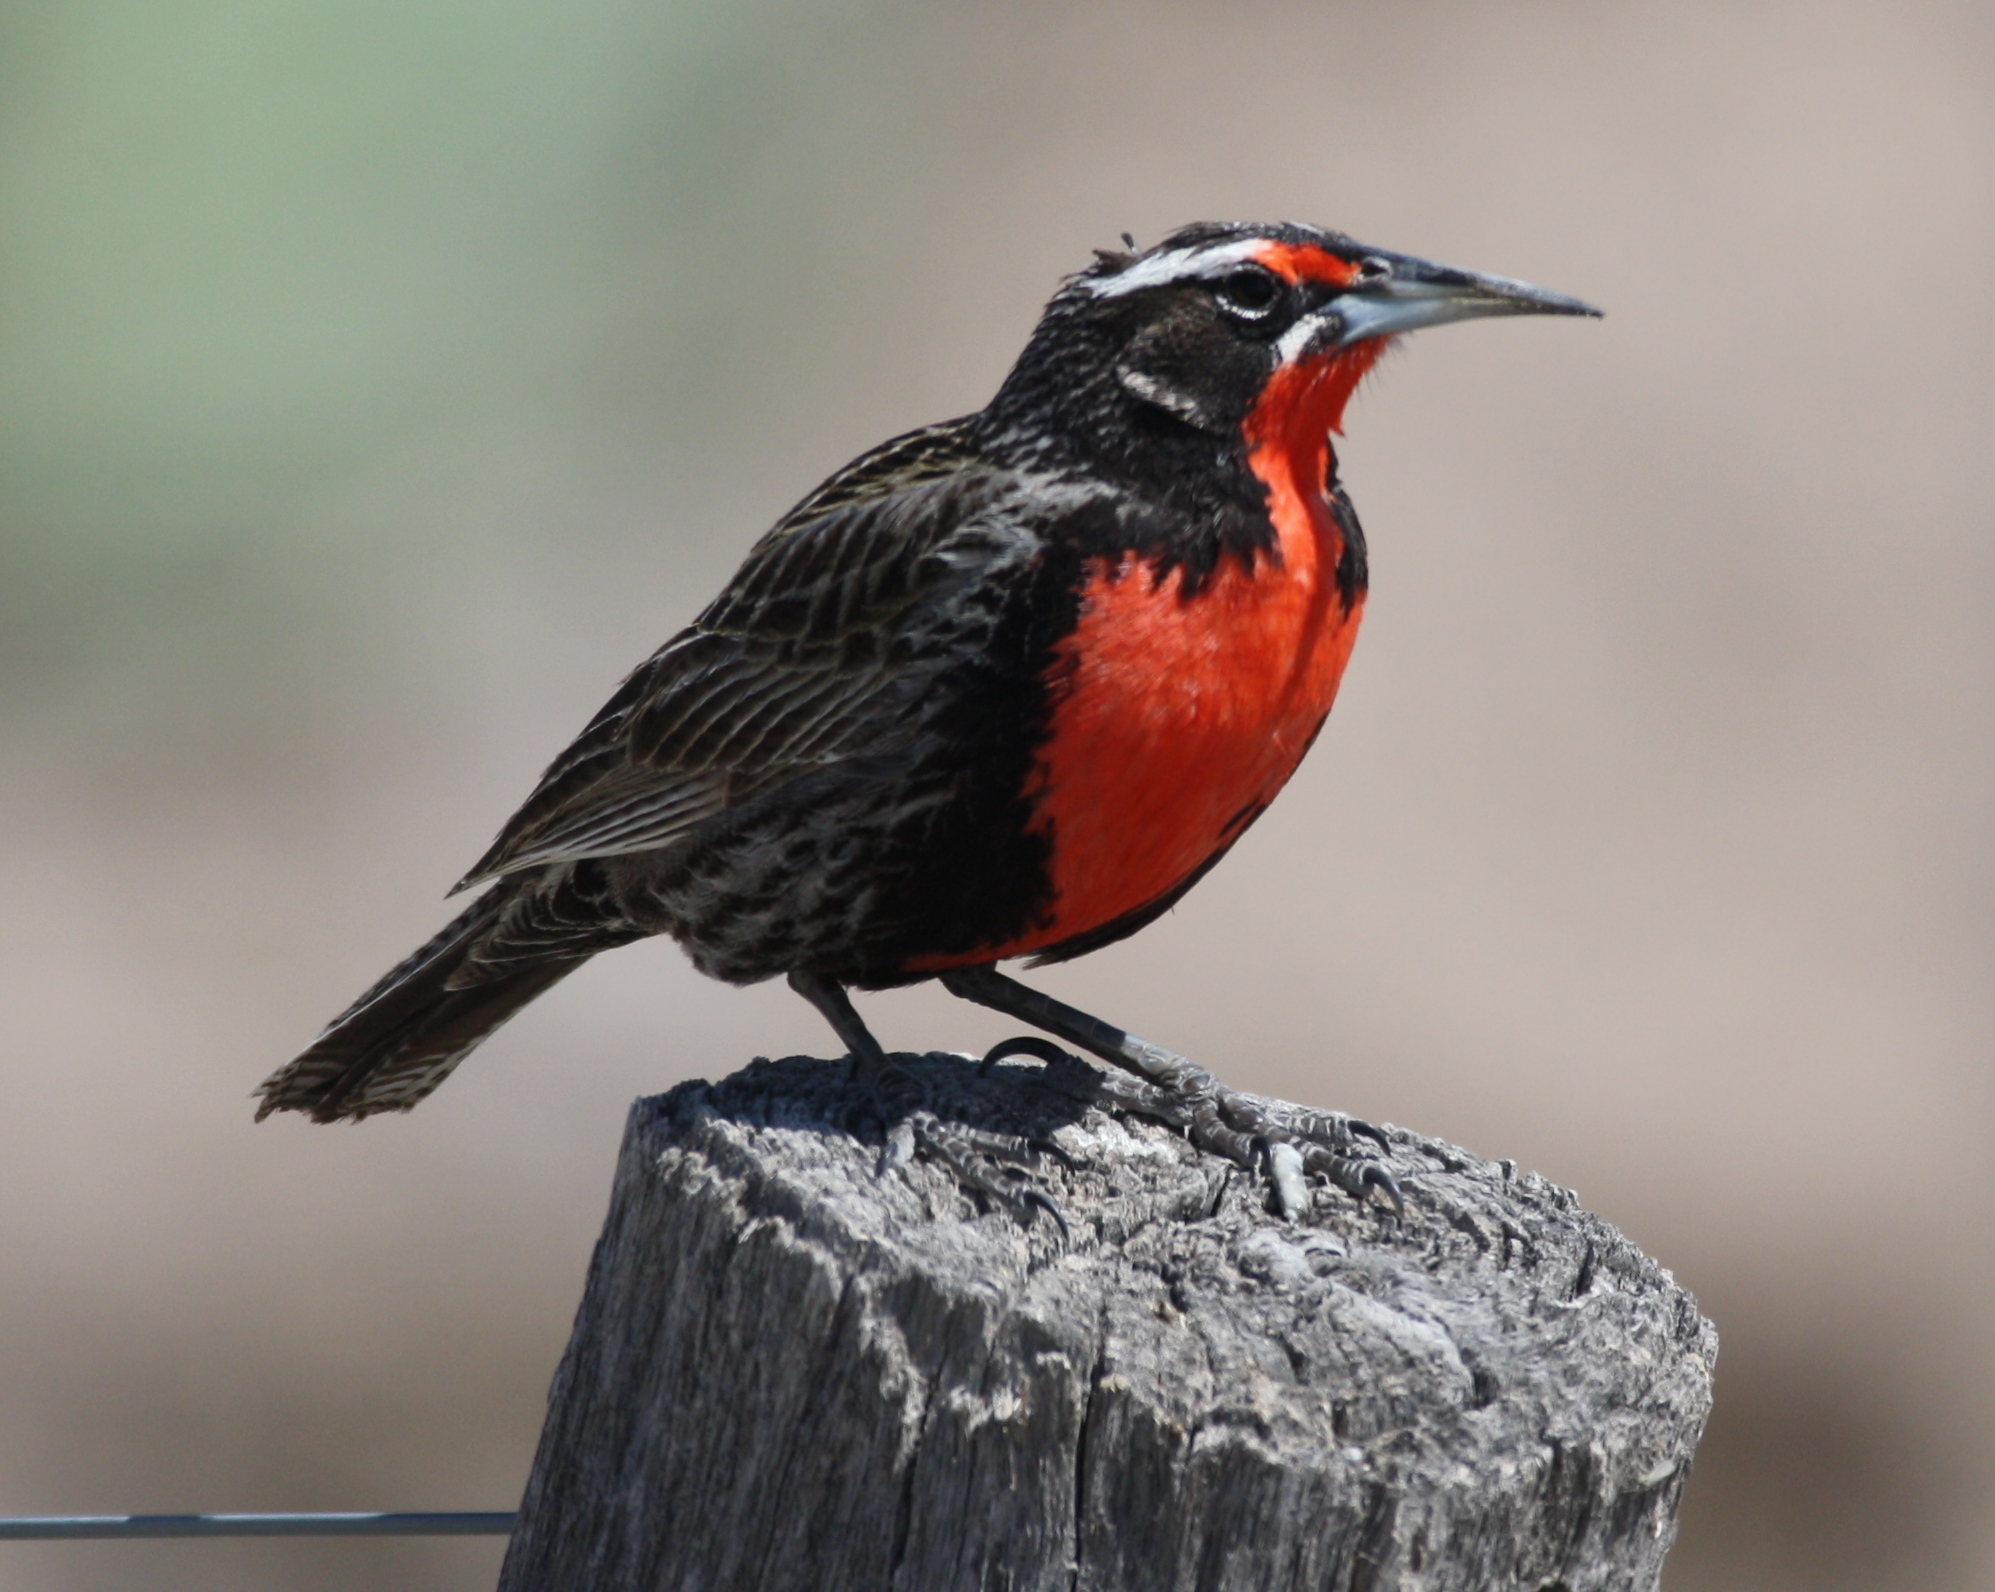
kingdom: Animalia
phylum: Chordata
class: Aves
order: Passeriformes
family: Icteridae
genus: Sturnella
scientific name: Sturnella loyca
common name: Long-tailed meadowlark
